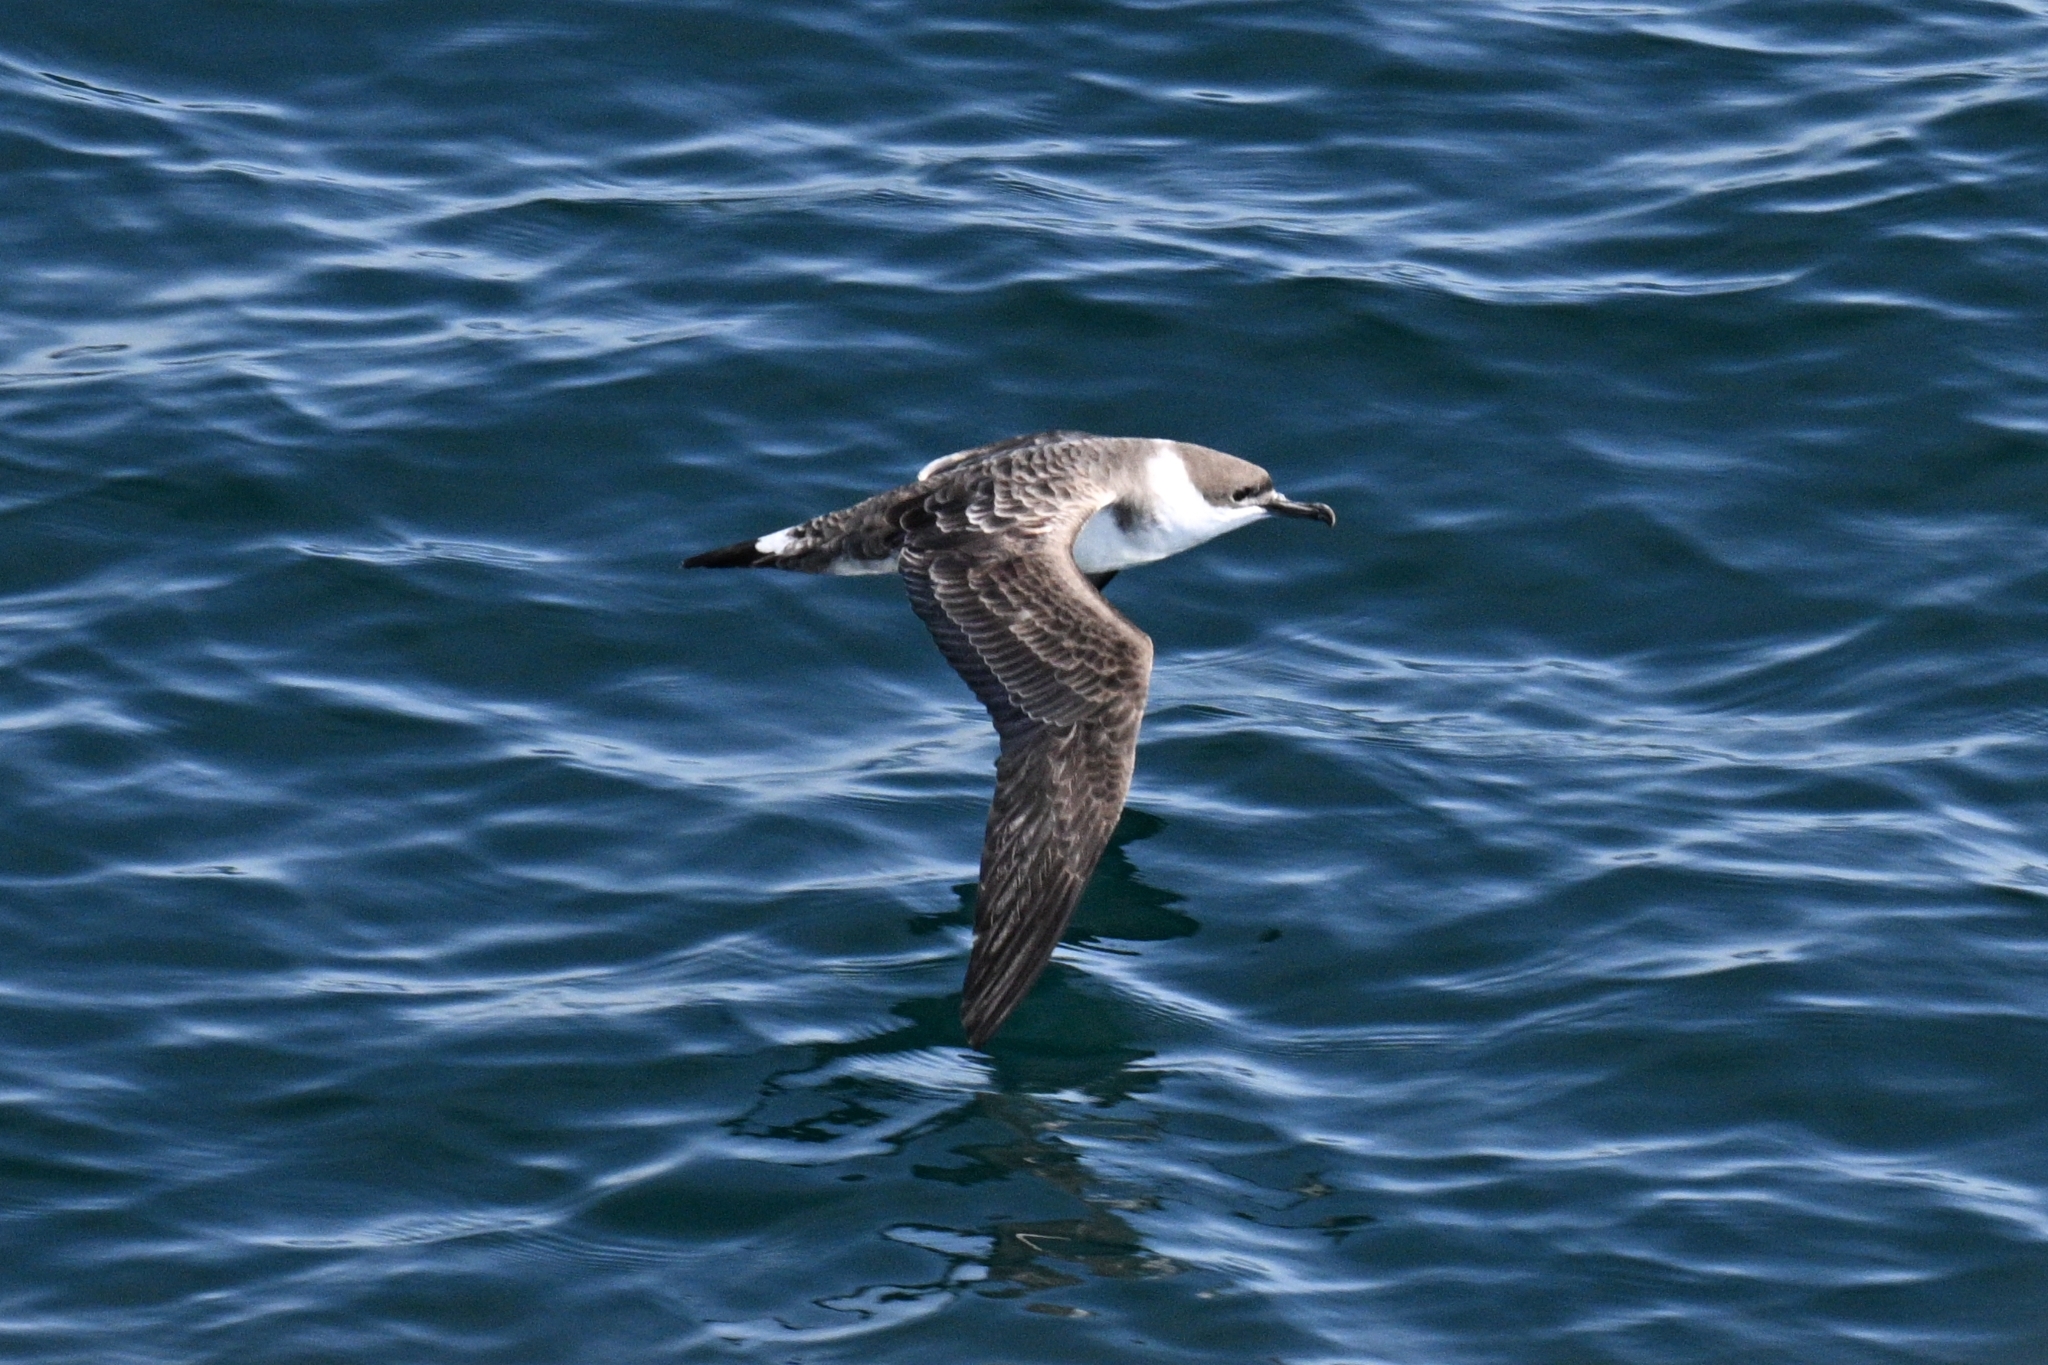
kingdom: Animalia
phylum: Chordata
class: Aves
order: Procellariiformes
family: Procellariidae
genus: Puffinus
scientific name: Puffinus gravis
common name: Great shearwater
